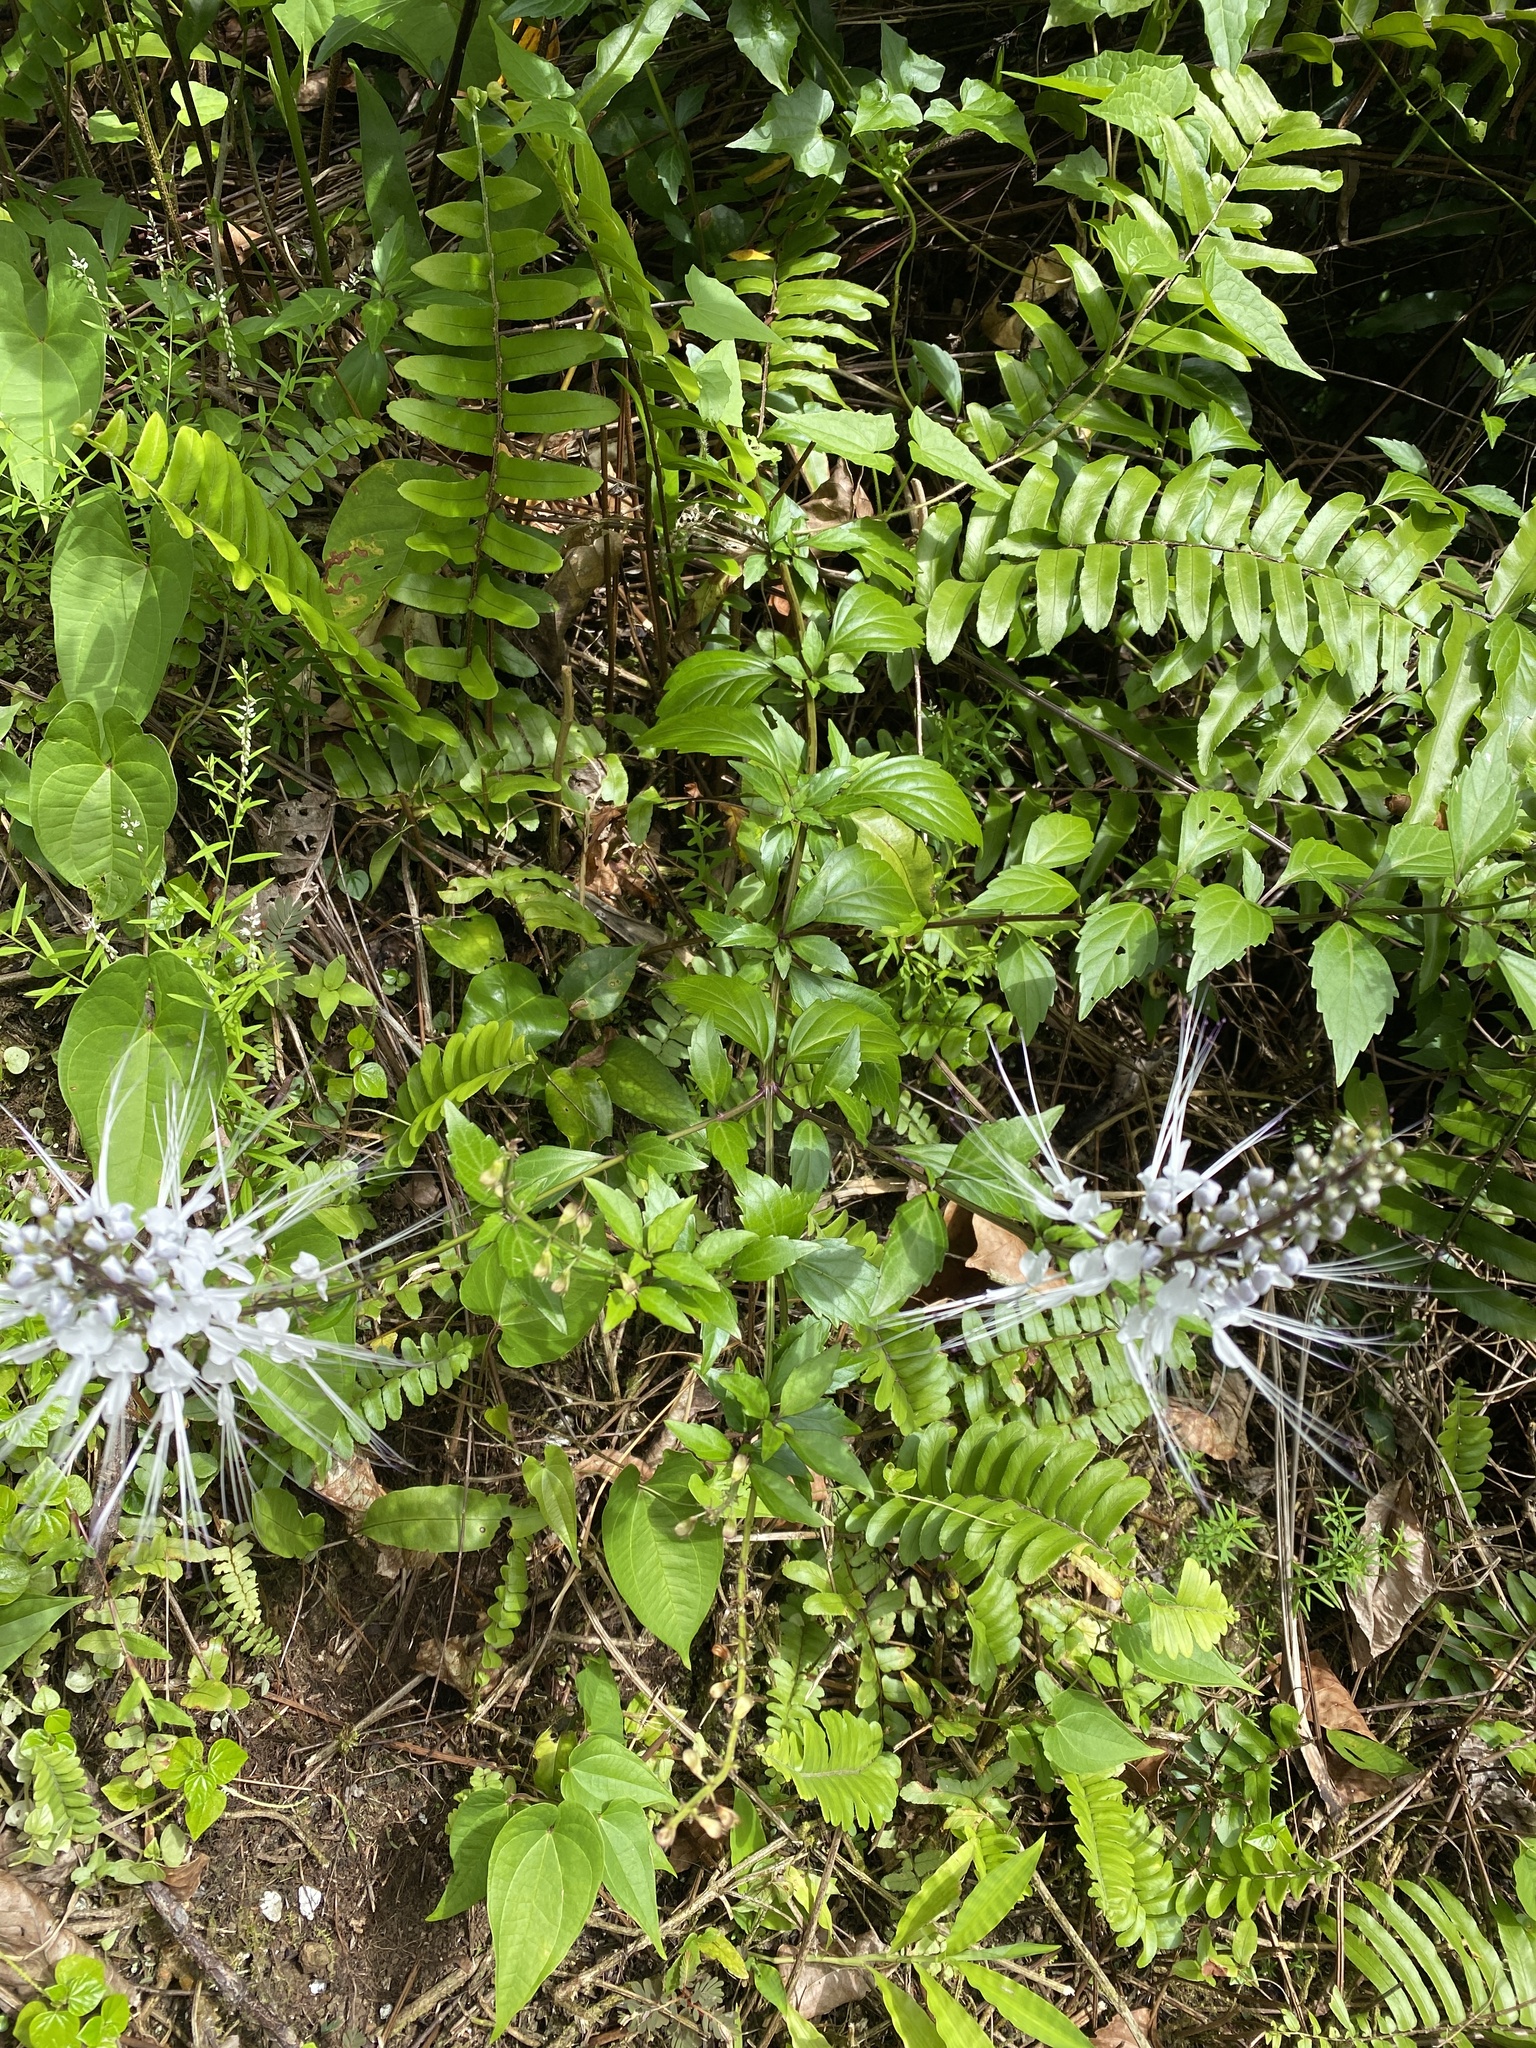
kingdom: Plantae
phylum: Tracheophyta
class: Magnoliopsida
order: Lamiales
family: Lamiaceae
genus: Orthosiphon
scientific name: Orthosiphon aristatus
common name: Whiskerplant
